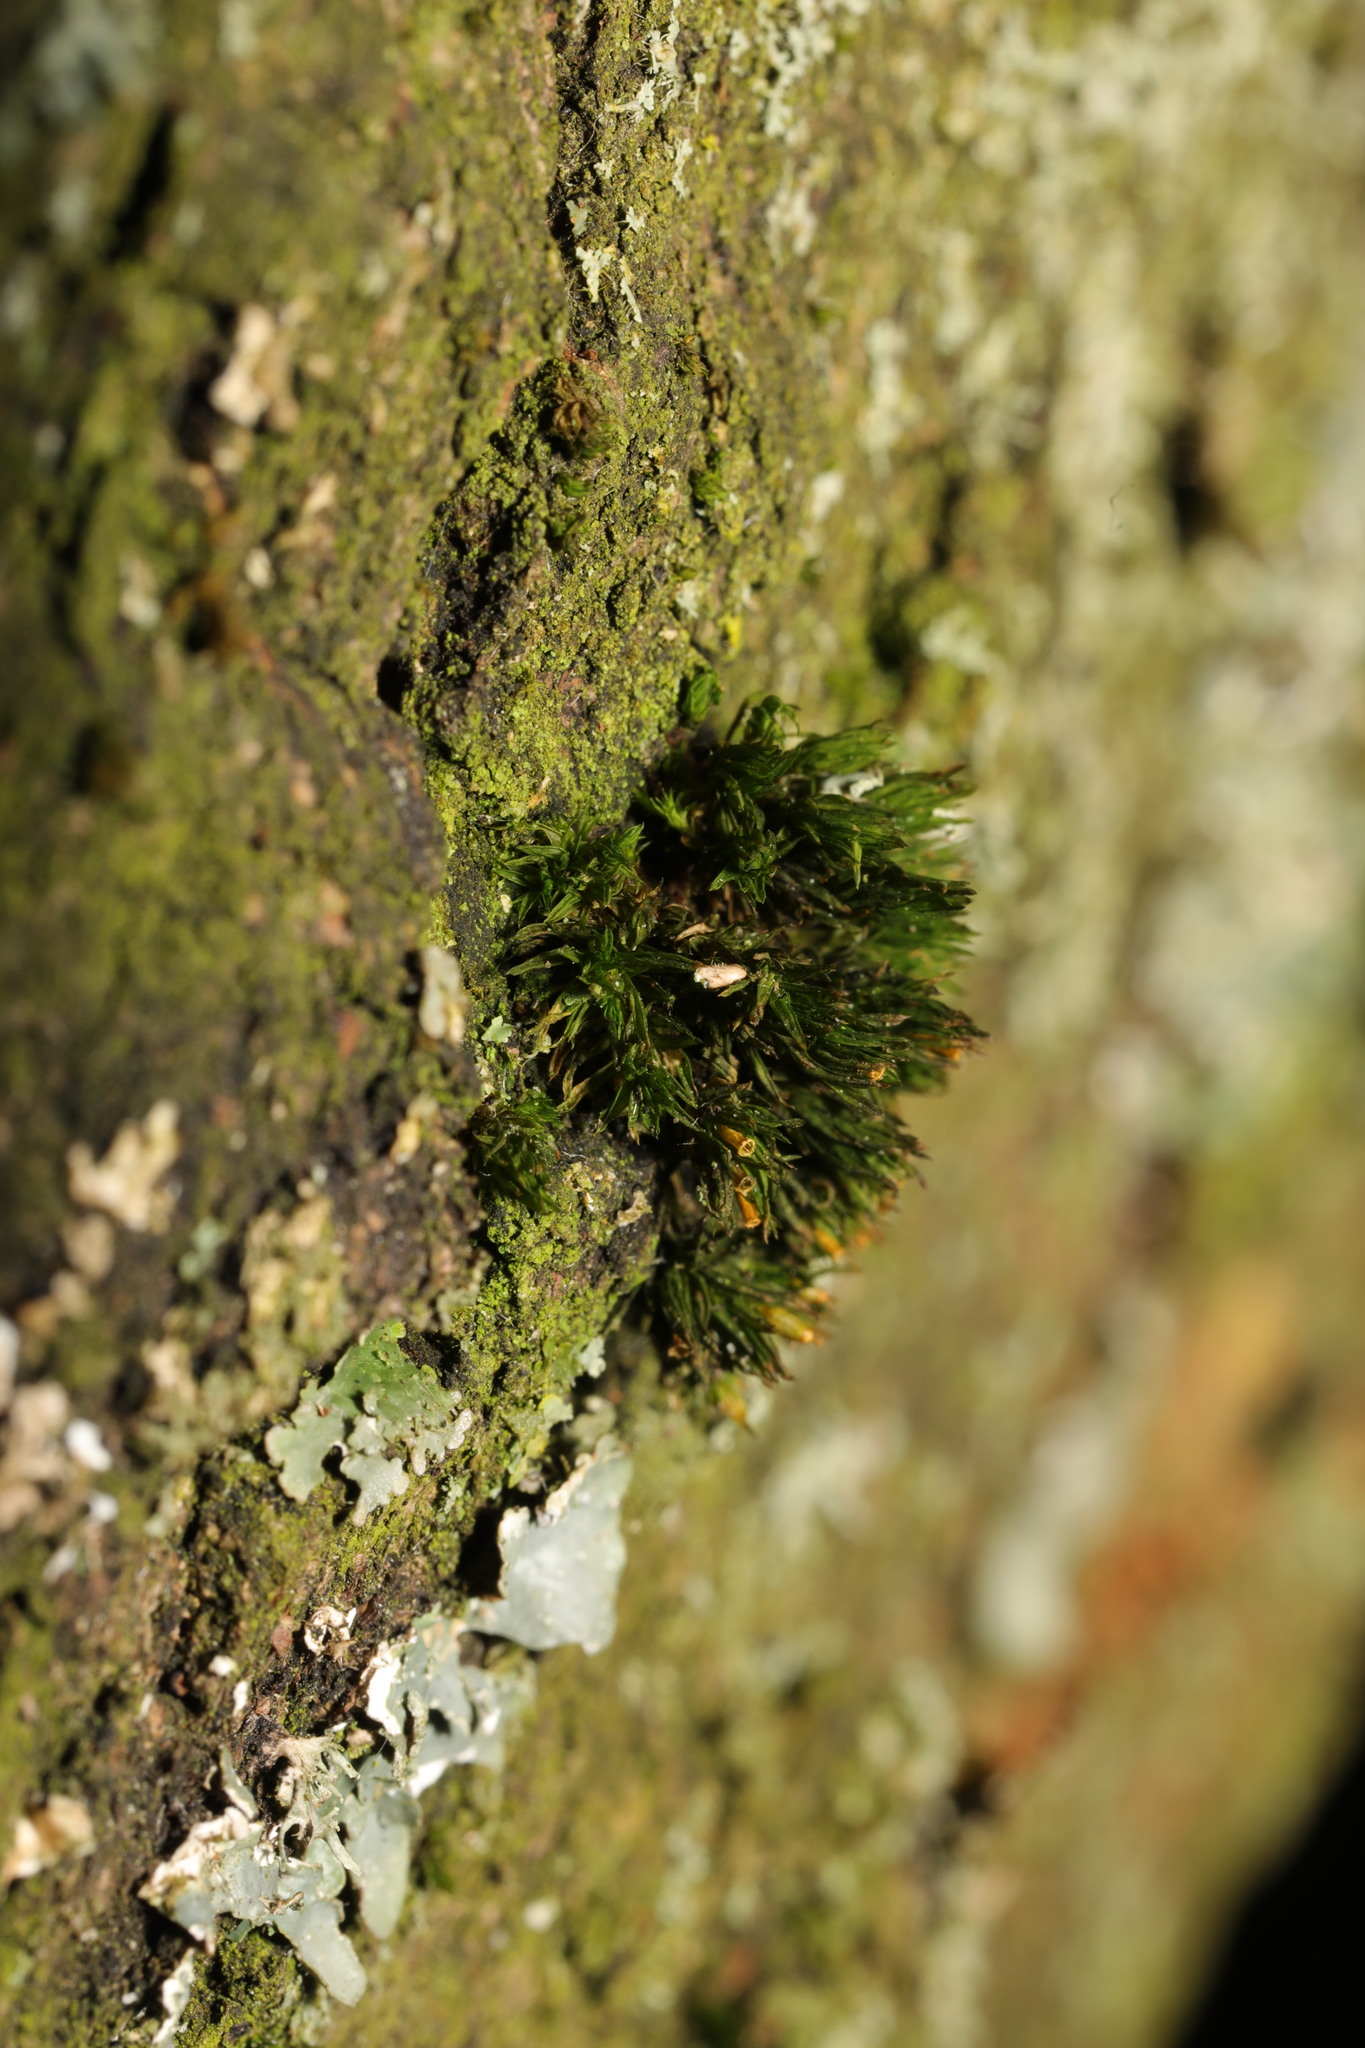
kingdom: Plantae
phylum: Bryophyta
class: Bryopsida
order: Orthotrichales
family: Orthotrichaceae
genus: Lewinskya
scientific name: Lewinskya affinis
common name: Wood bristle-moss
